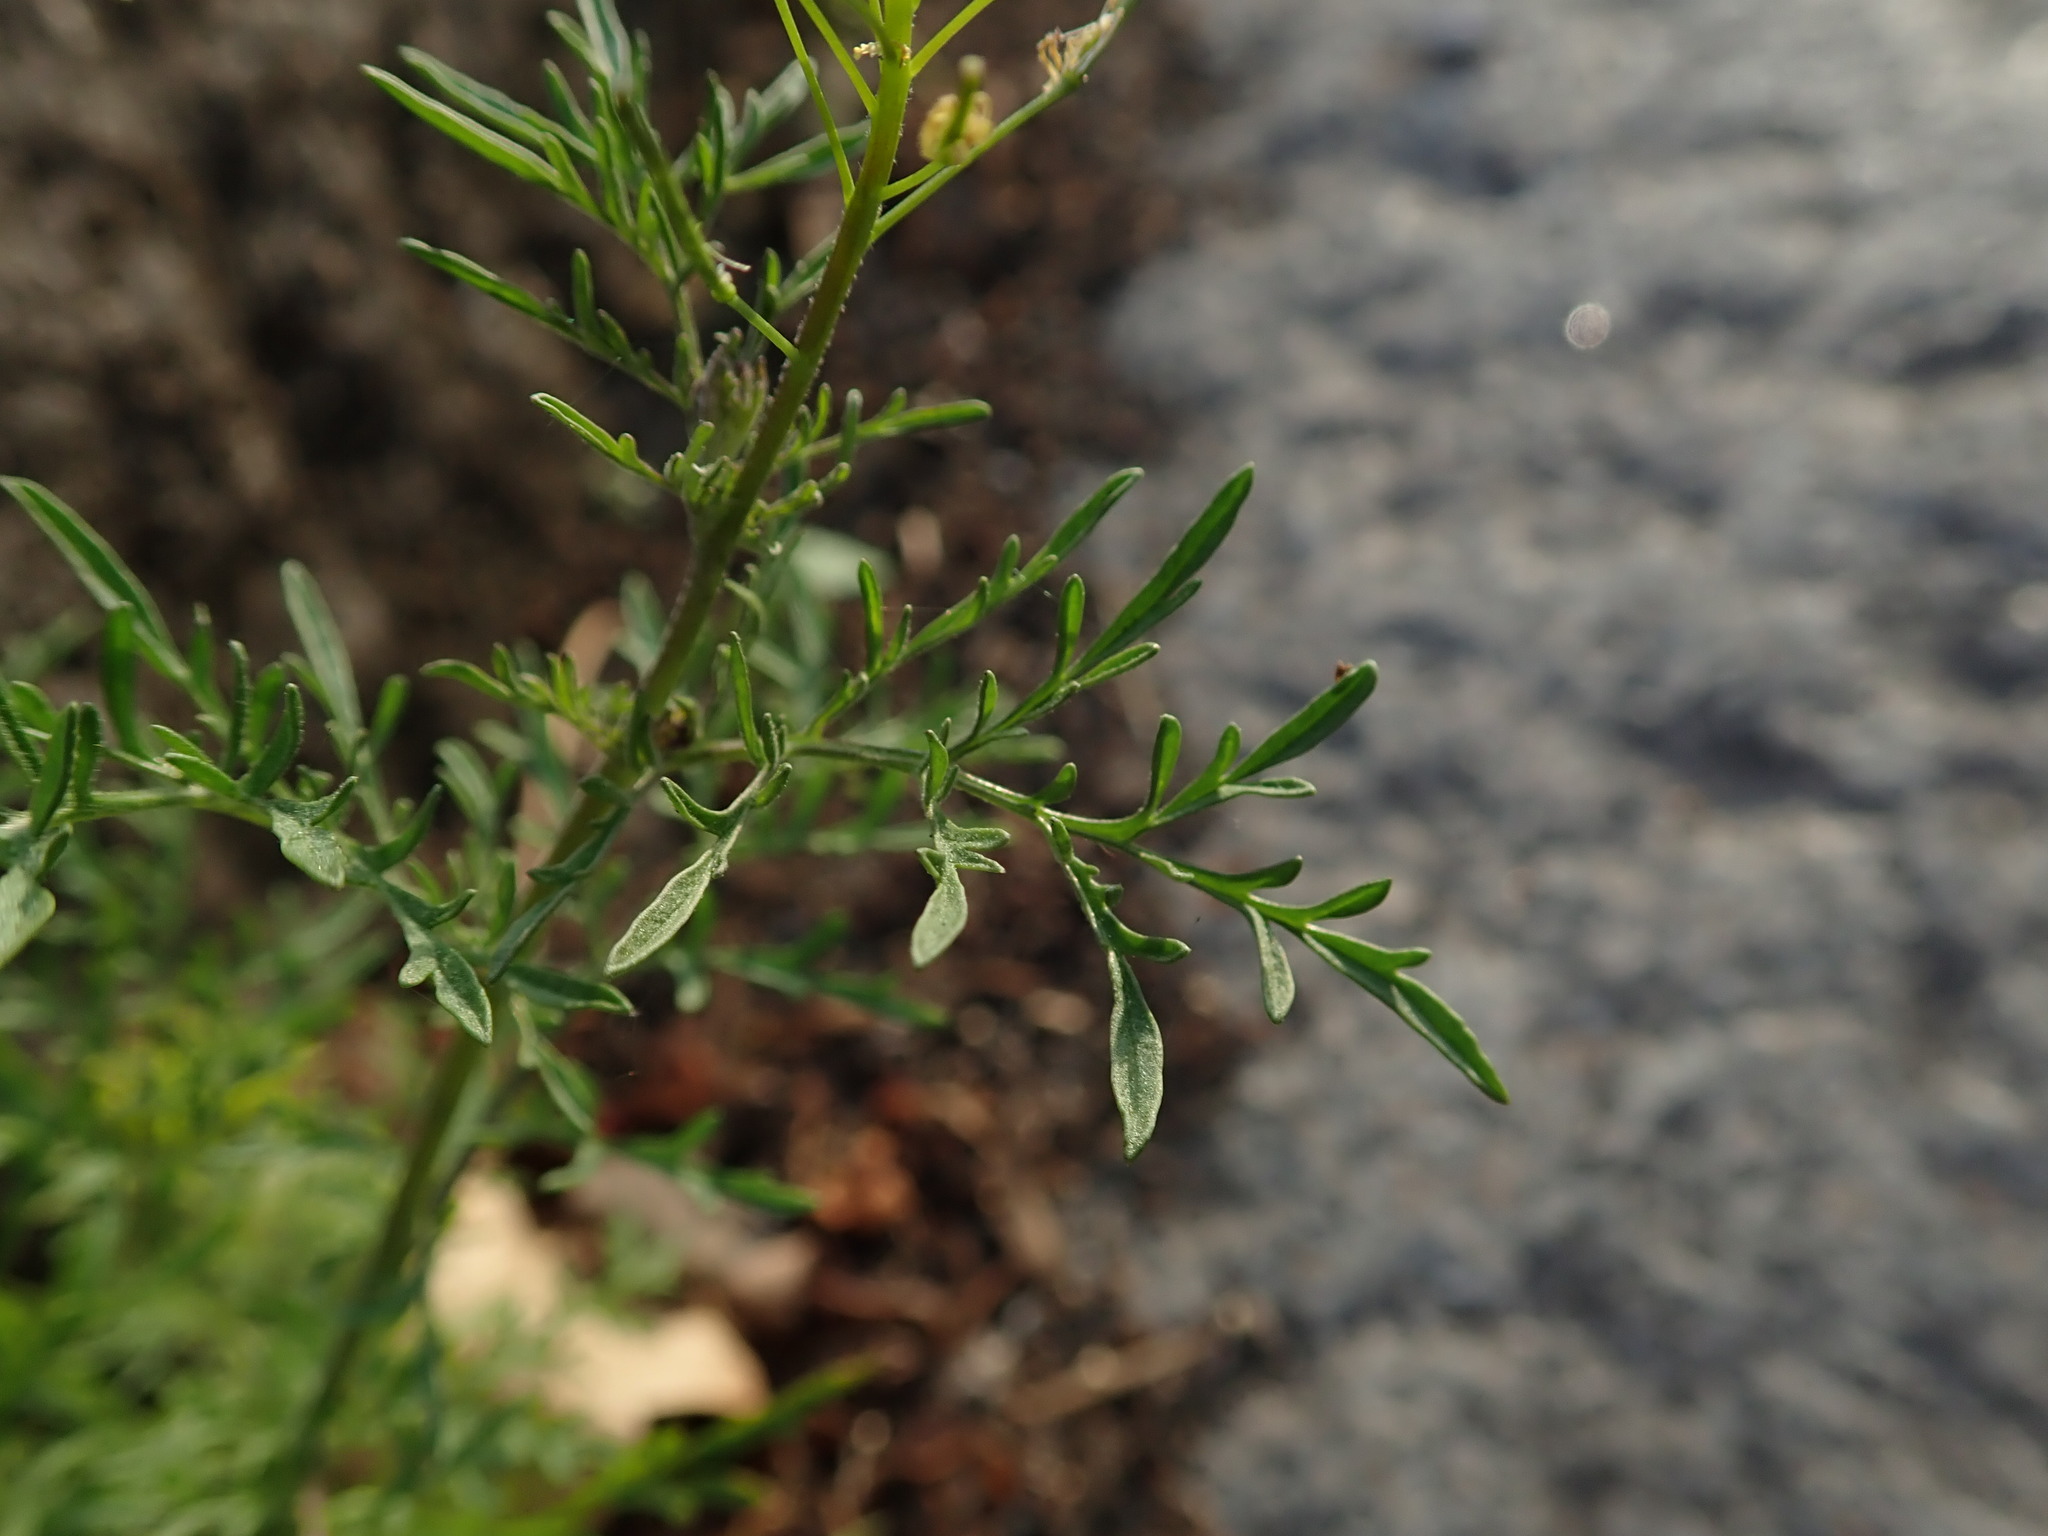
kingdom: Plantae
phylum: Tracheophyta
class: Magnoliopsida
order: Brassicales
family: Brassicaceae
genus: Descurainia
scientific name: Descurainia sophia
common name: Flixweed
